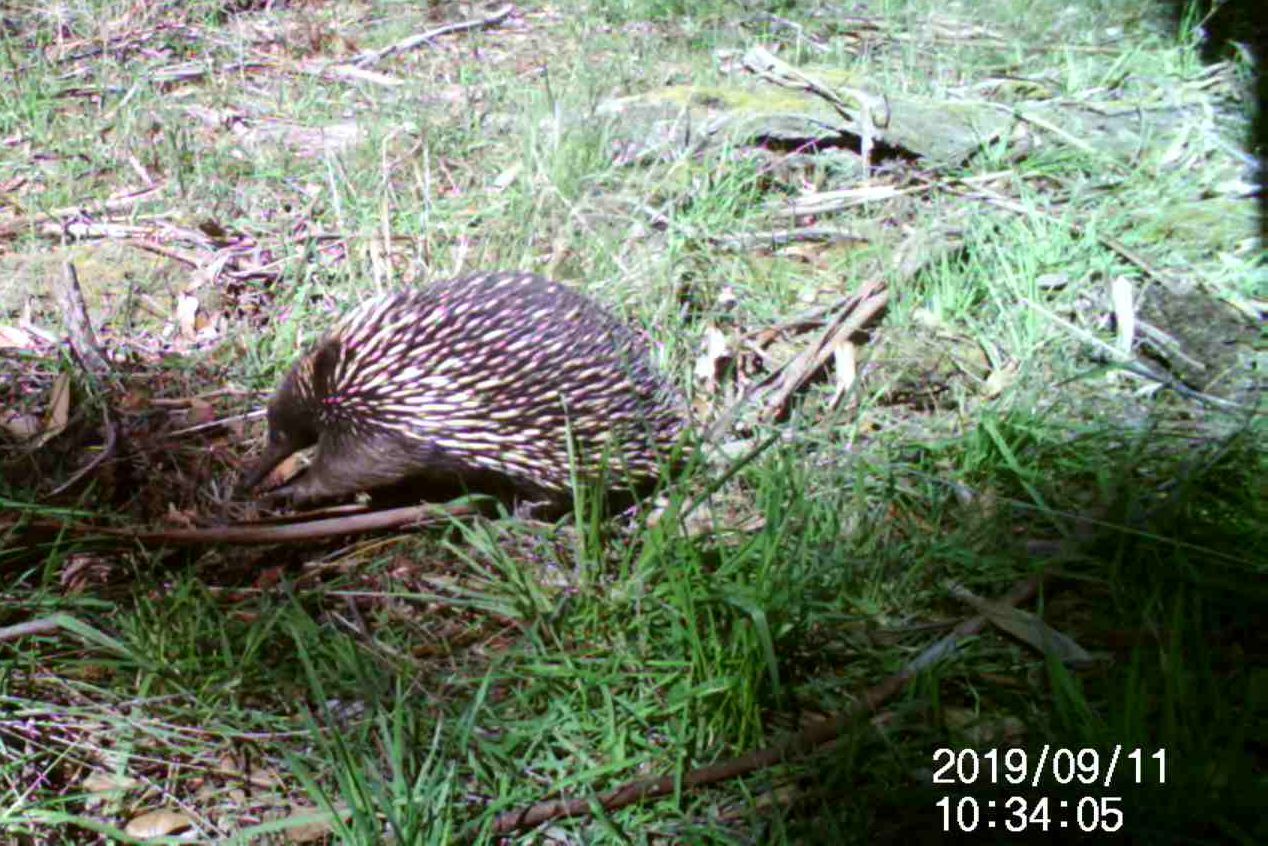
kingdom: Animalia
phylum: Chordata
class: Mammalia
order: Monotremata
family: Tachyglossidae
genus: Tachyglossus
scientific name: Tachyglossus aculeatus
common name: Short-beaked echidna
